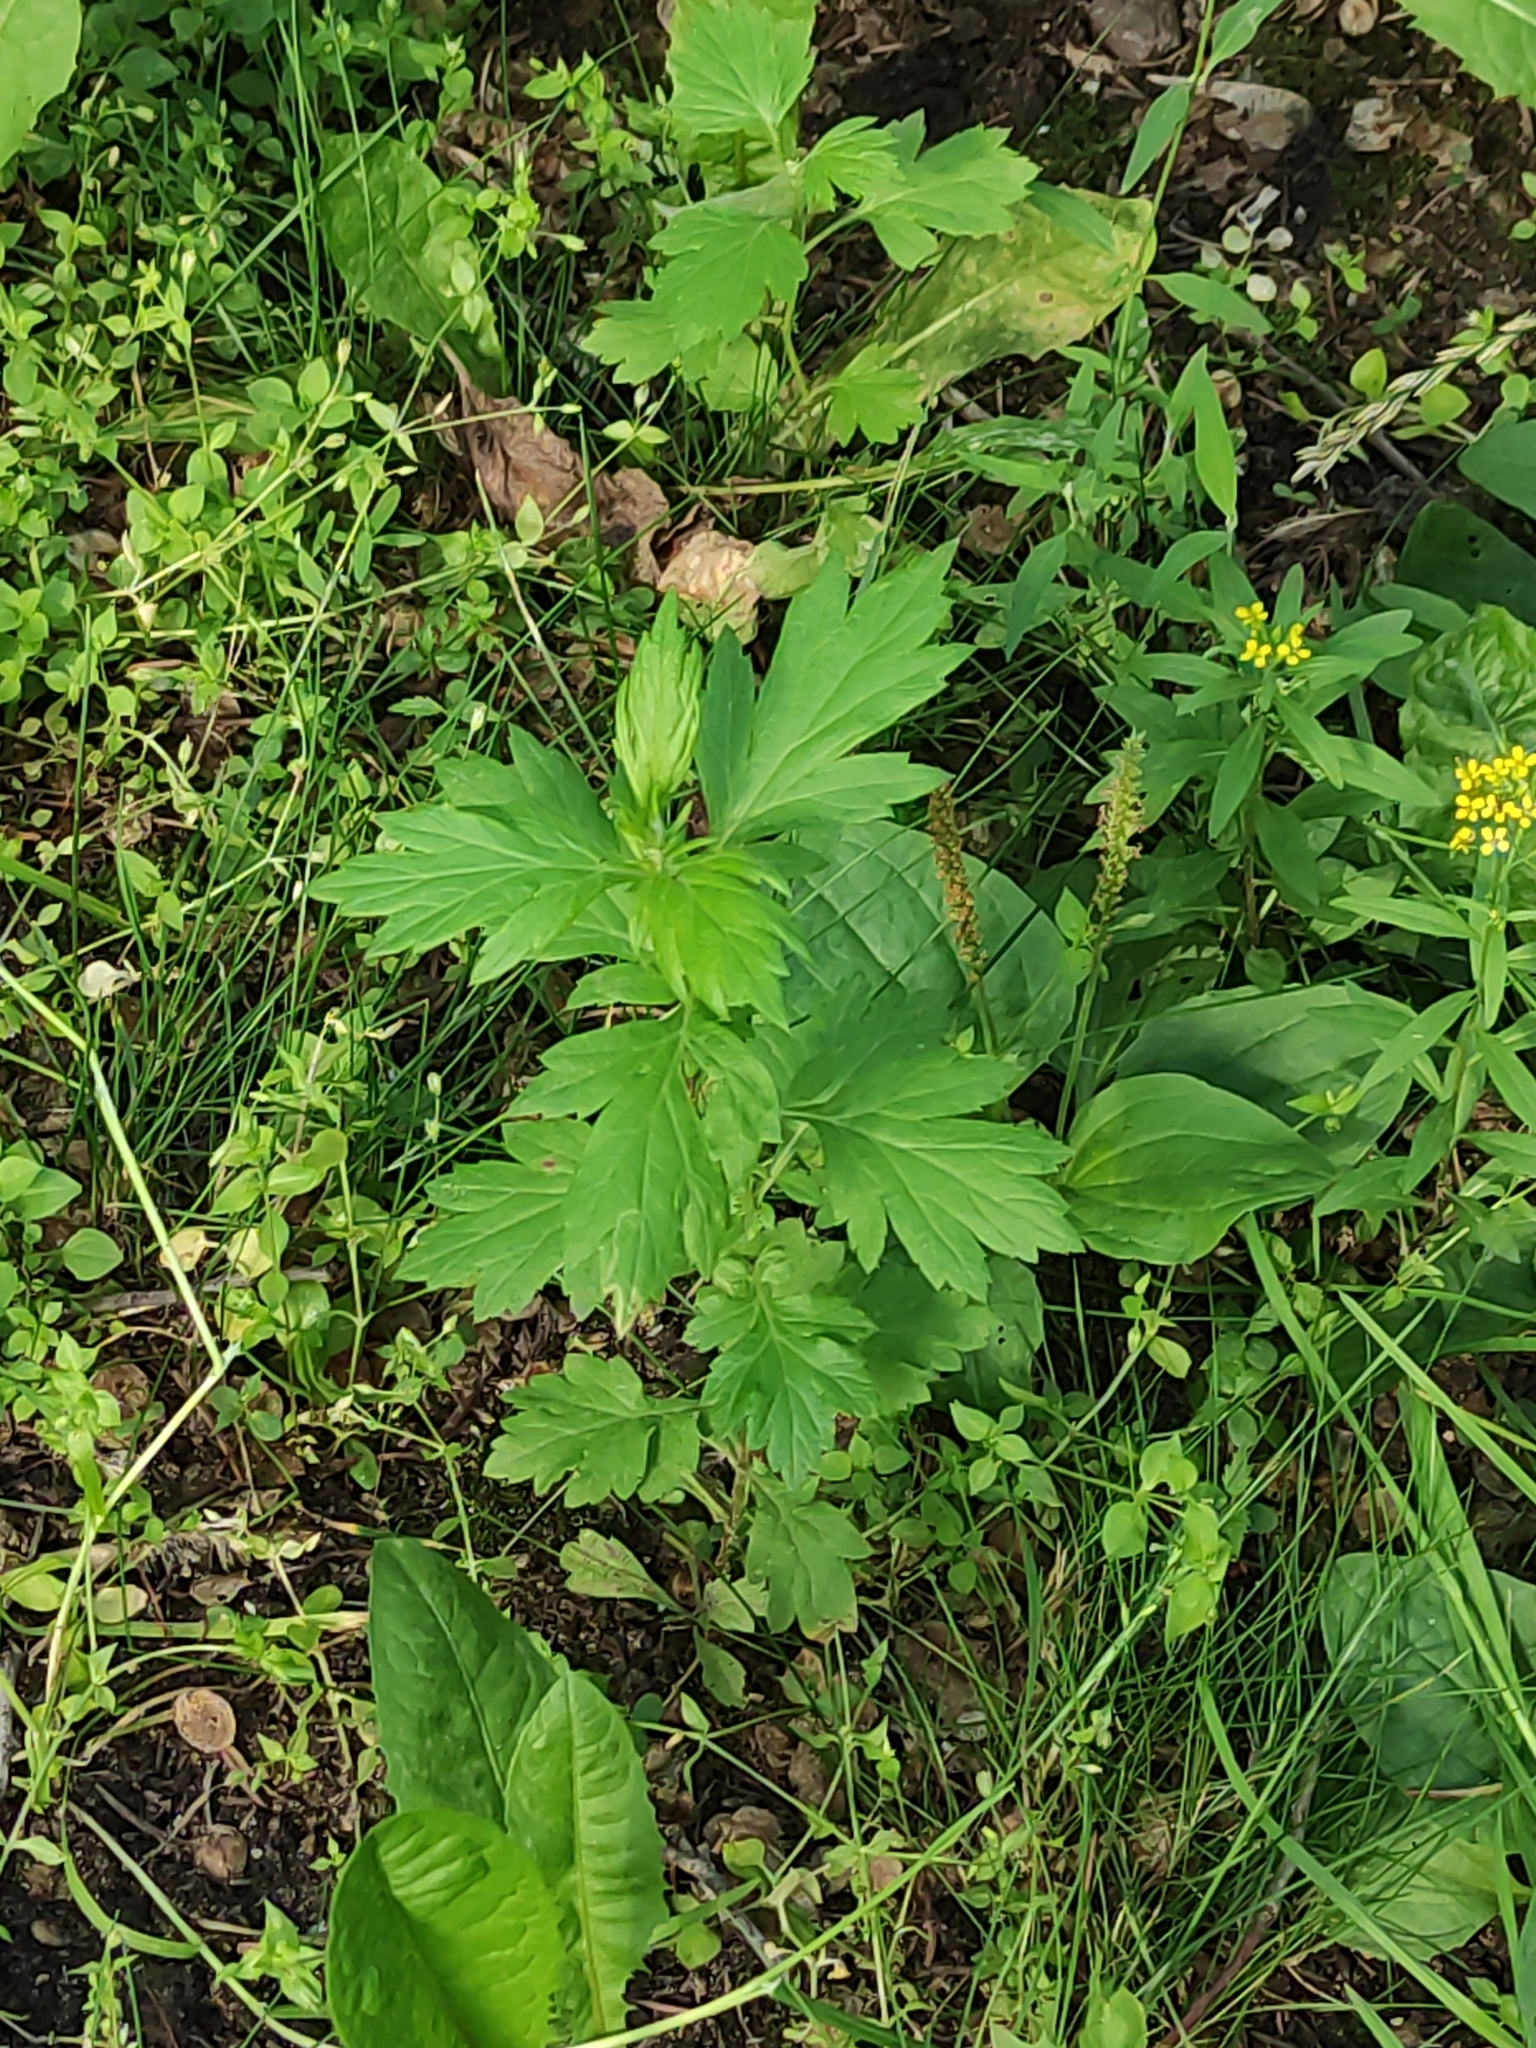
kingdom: Plantae
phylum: Tracheophyta
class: Magnoliopsida
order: Asterales
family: Asteraceae
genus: Artemisia
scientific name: Artemisia vulgaris
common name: Mugwort
